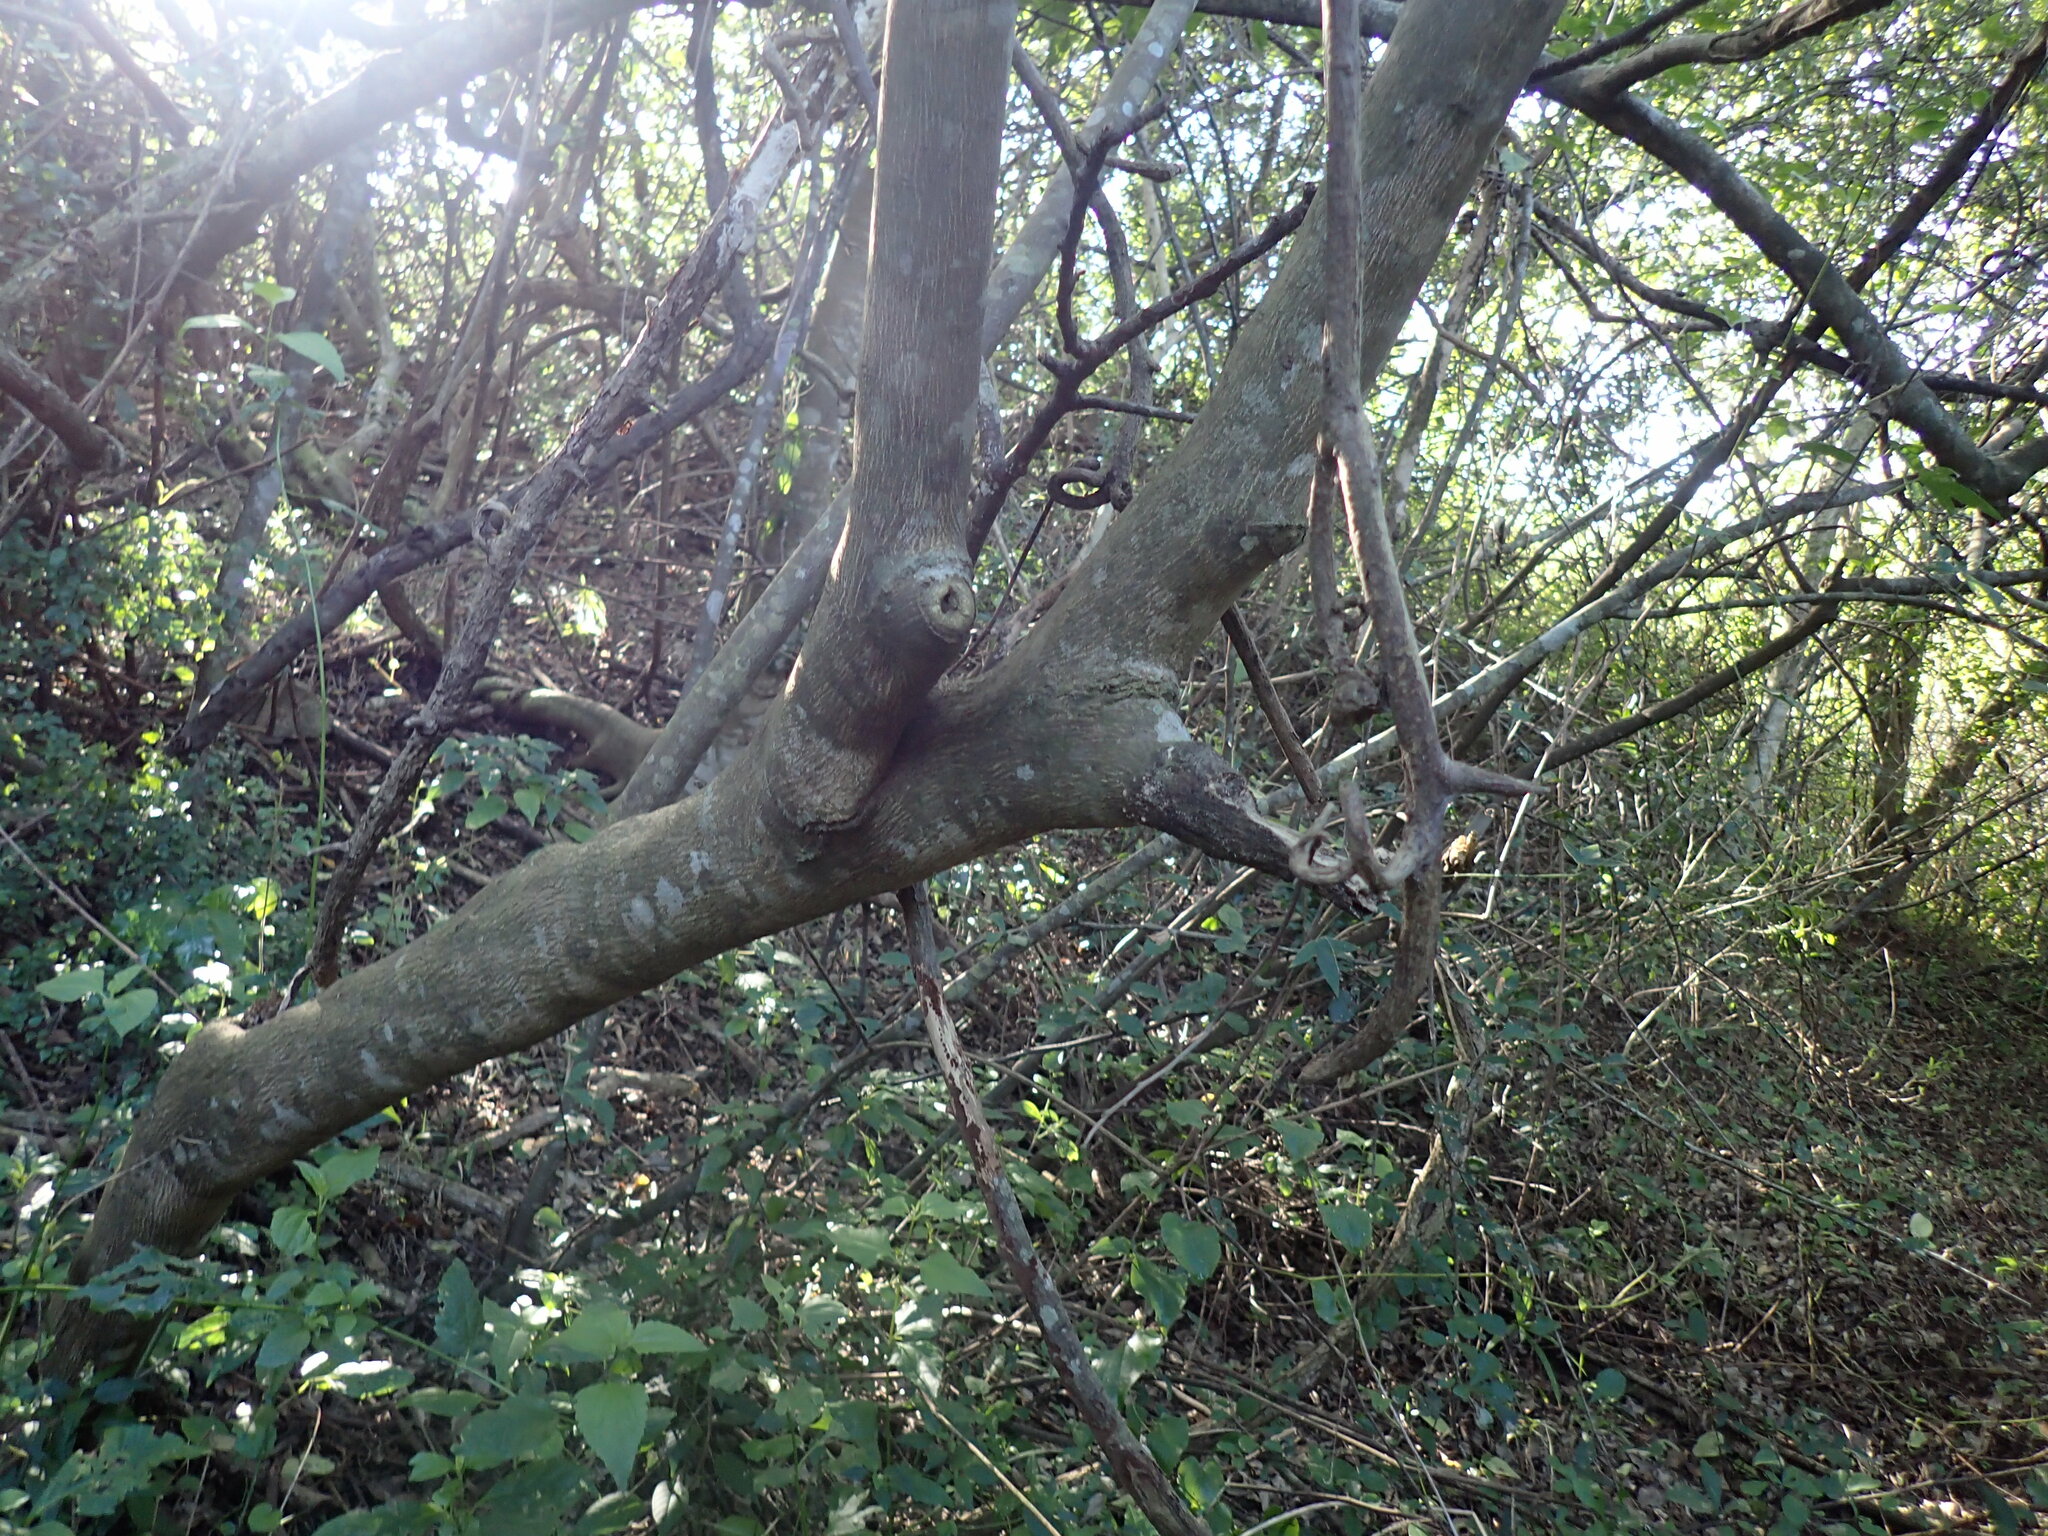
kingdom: Plantae
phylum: Tracheophyta
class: Magnoliopsida
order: Sapindales
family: Rutaceae
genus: Clausena
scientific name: Clausena anisata
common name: Horsewood
